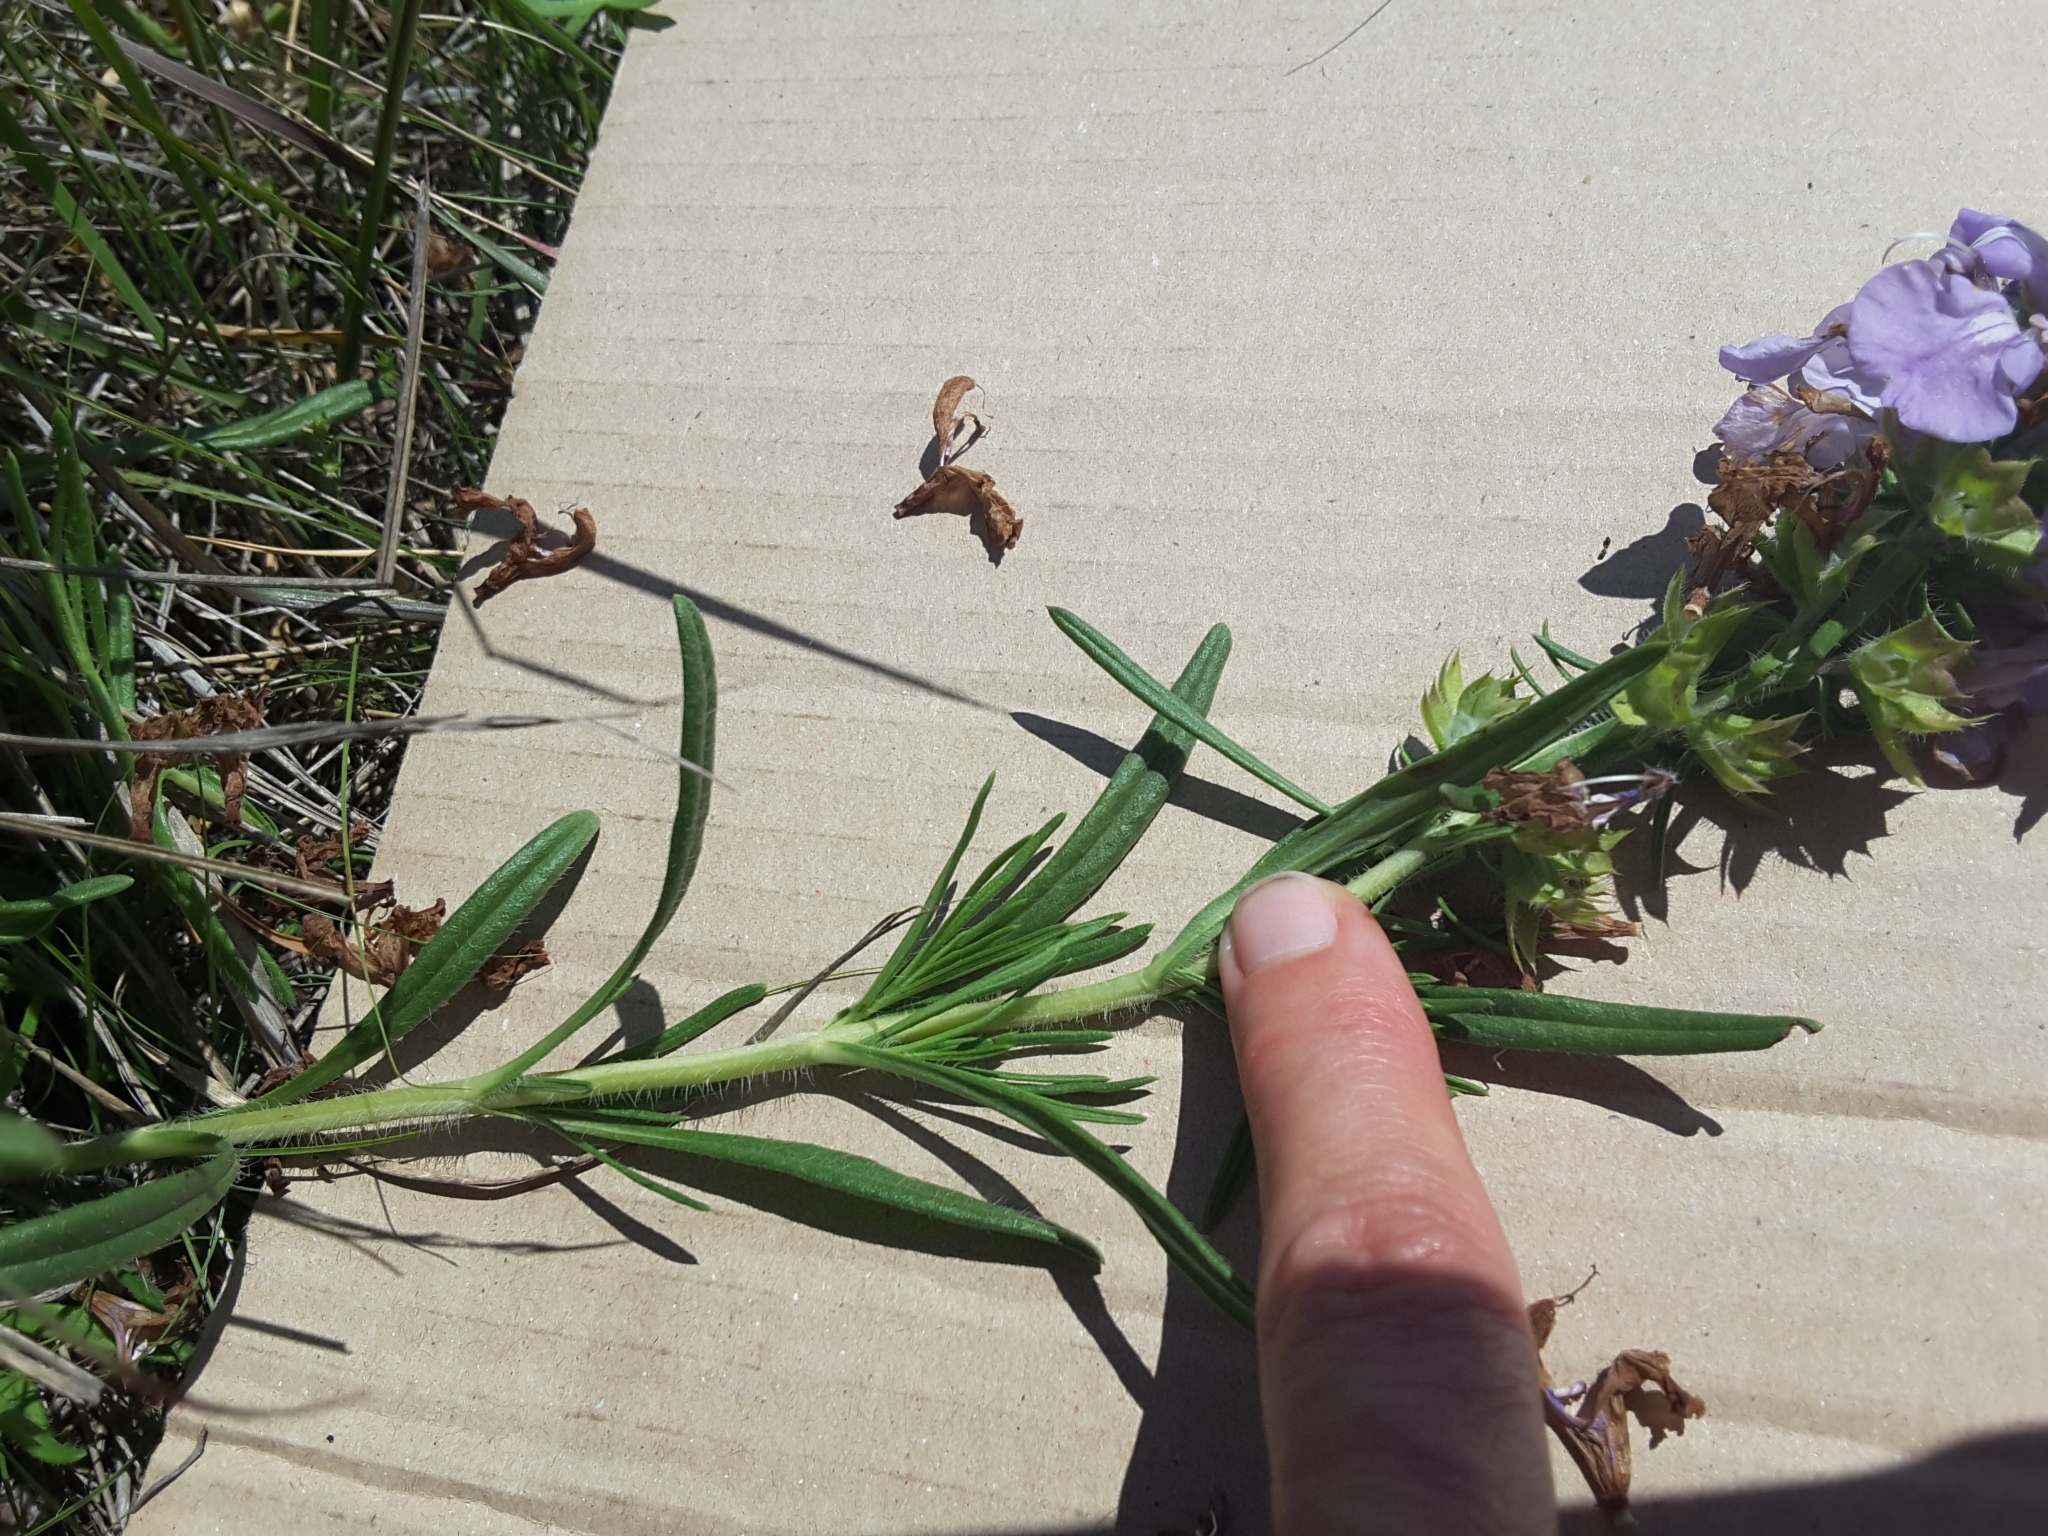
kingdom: Plantae
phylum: Tracheophyta
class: Magnoliopsida
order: Lamiales
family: Lamiaceae
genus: Salvia
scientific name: Salvia engelmannii
